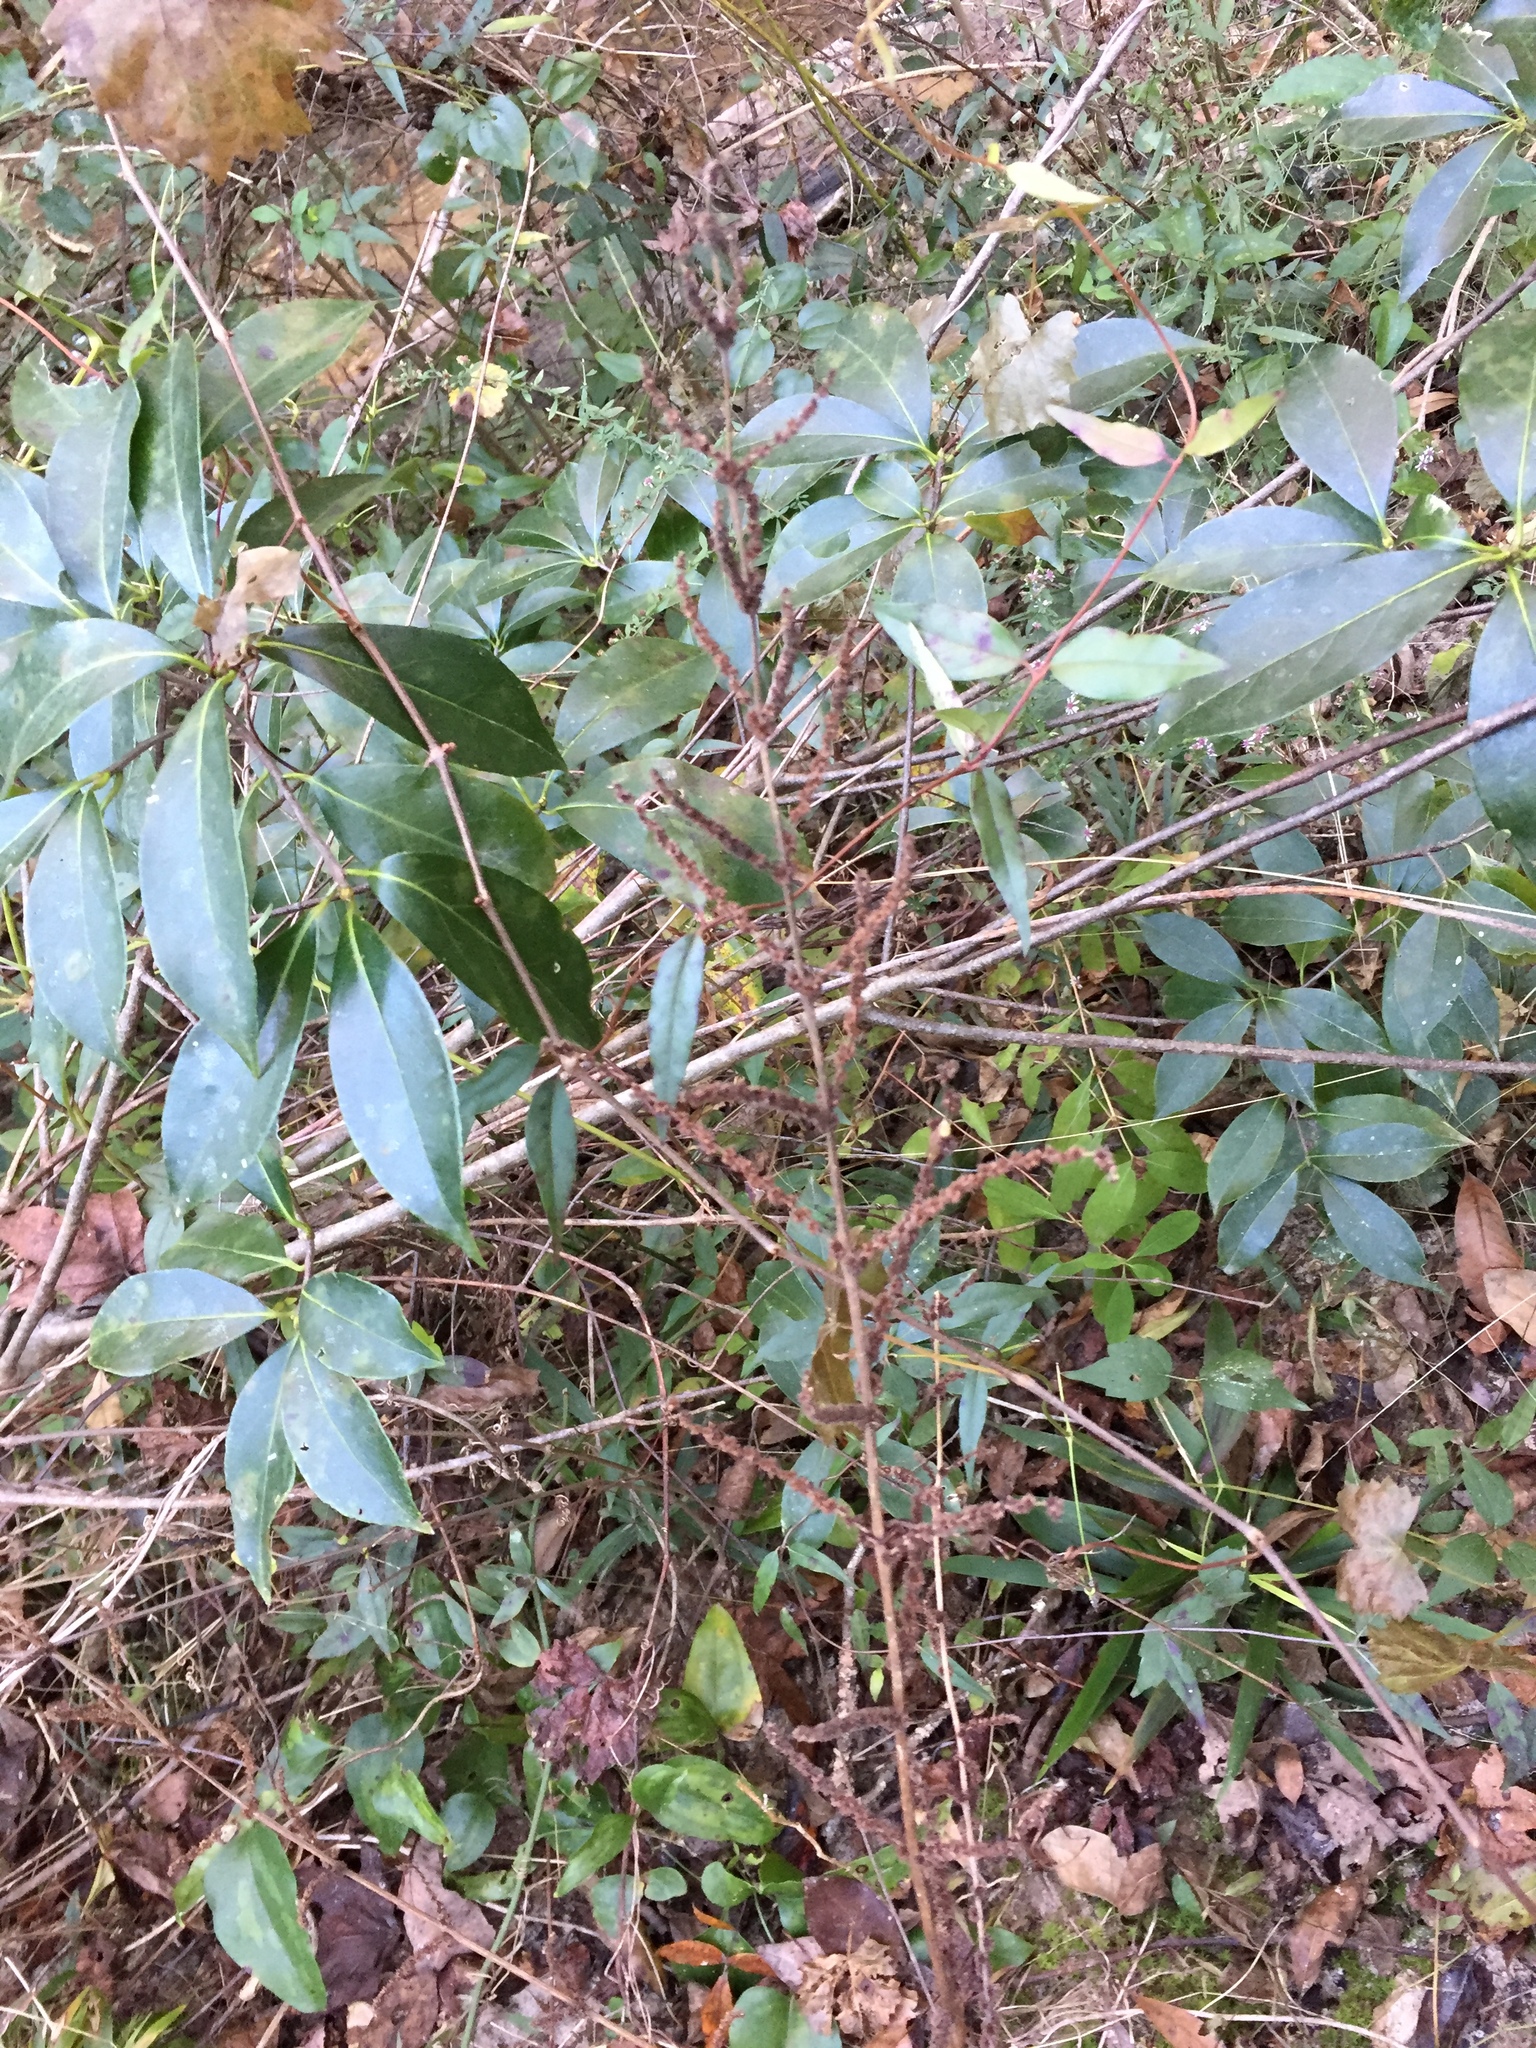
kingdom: Plantae
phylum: Tracheophyta
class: Magnoliopsida
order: Rosales
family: Urticaceae
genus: Boehmeria
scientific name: Boehmeria cylindrica
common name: Bog-hemp
